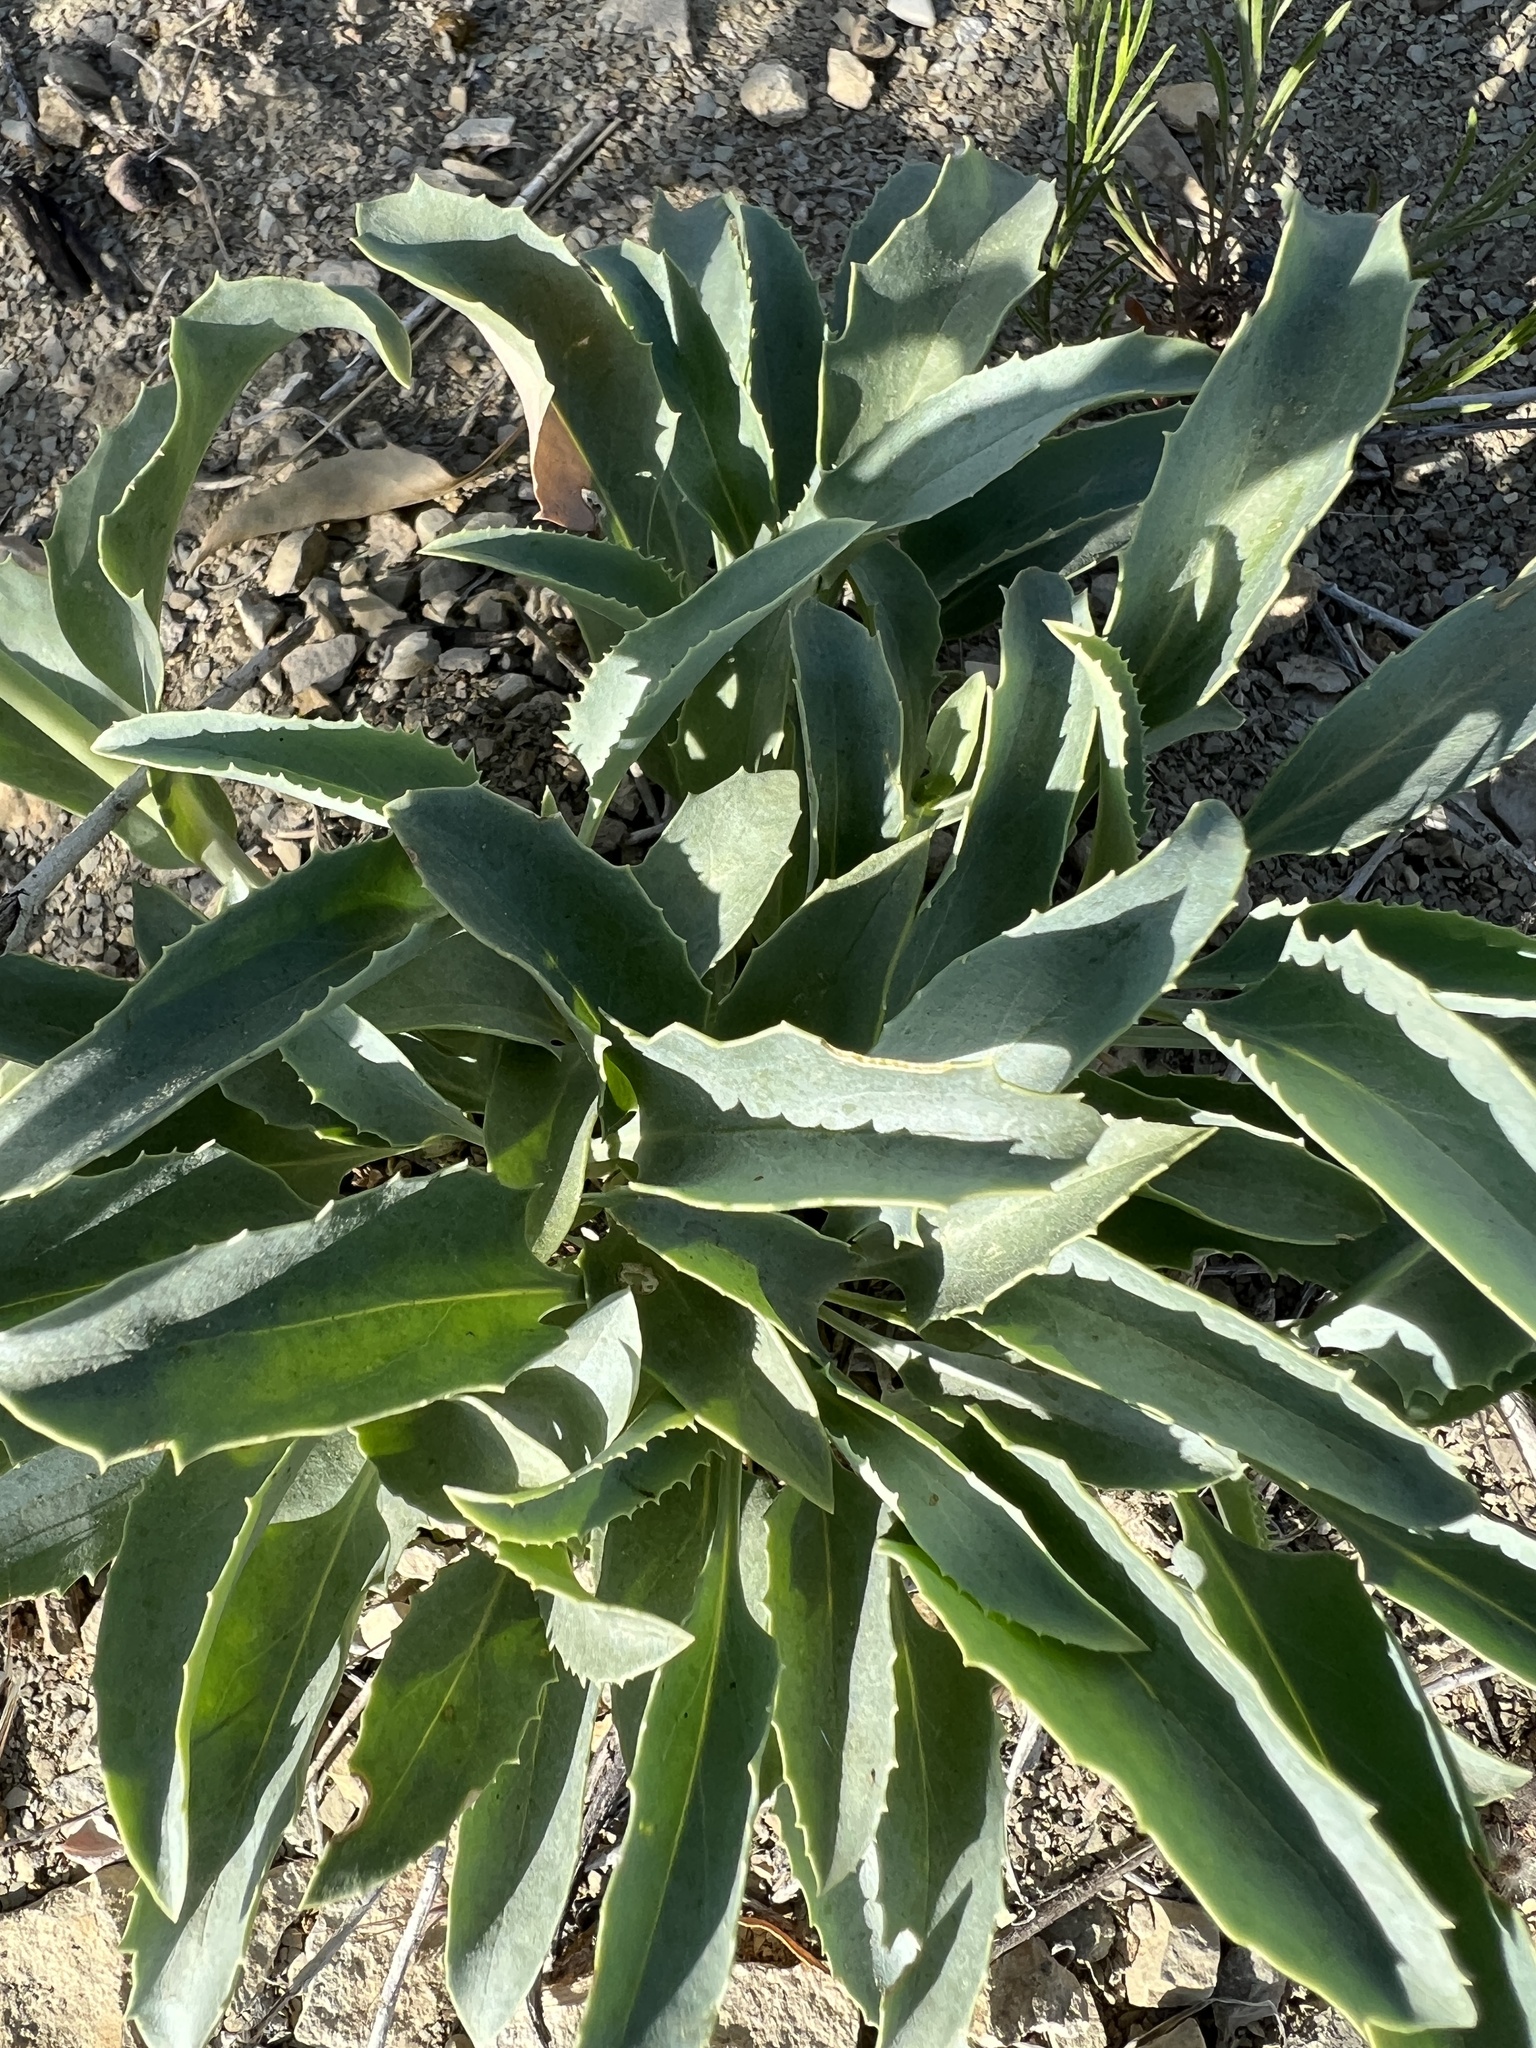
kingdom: Plantae
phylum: Tracheophyta
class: Magnoliopsida
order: Lamiales
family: Plantaginaceae
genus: Penstemon
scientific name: Penstemon palmeri
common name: Palmer penstemon
